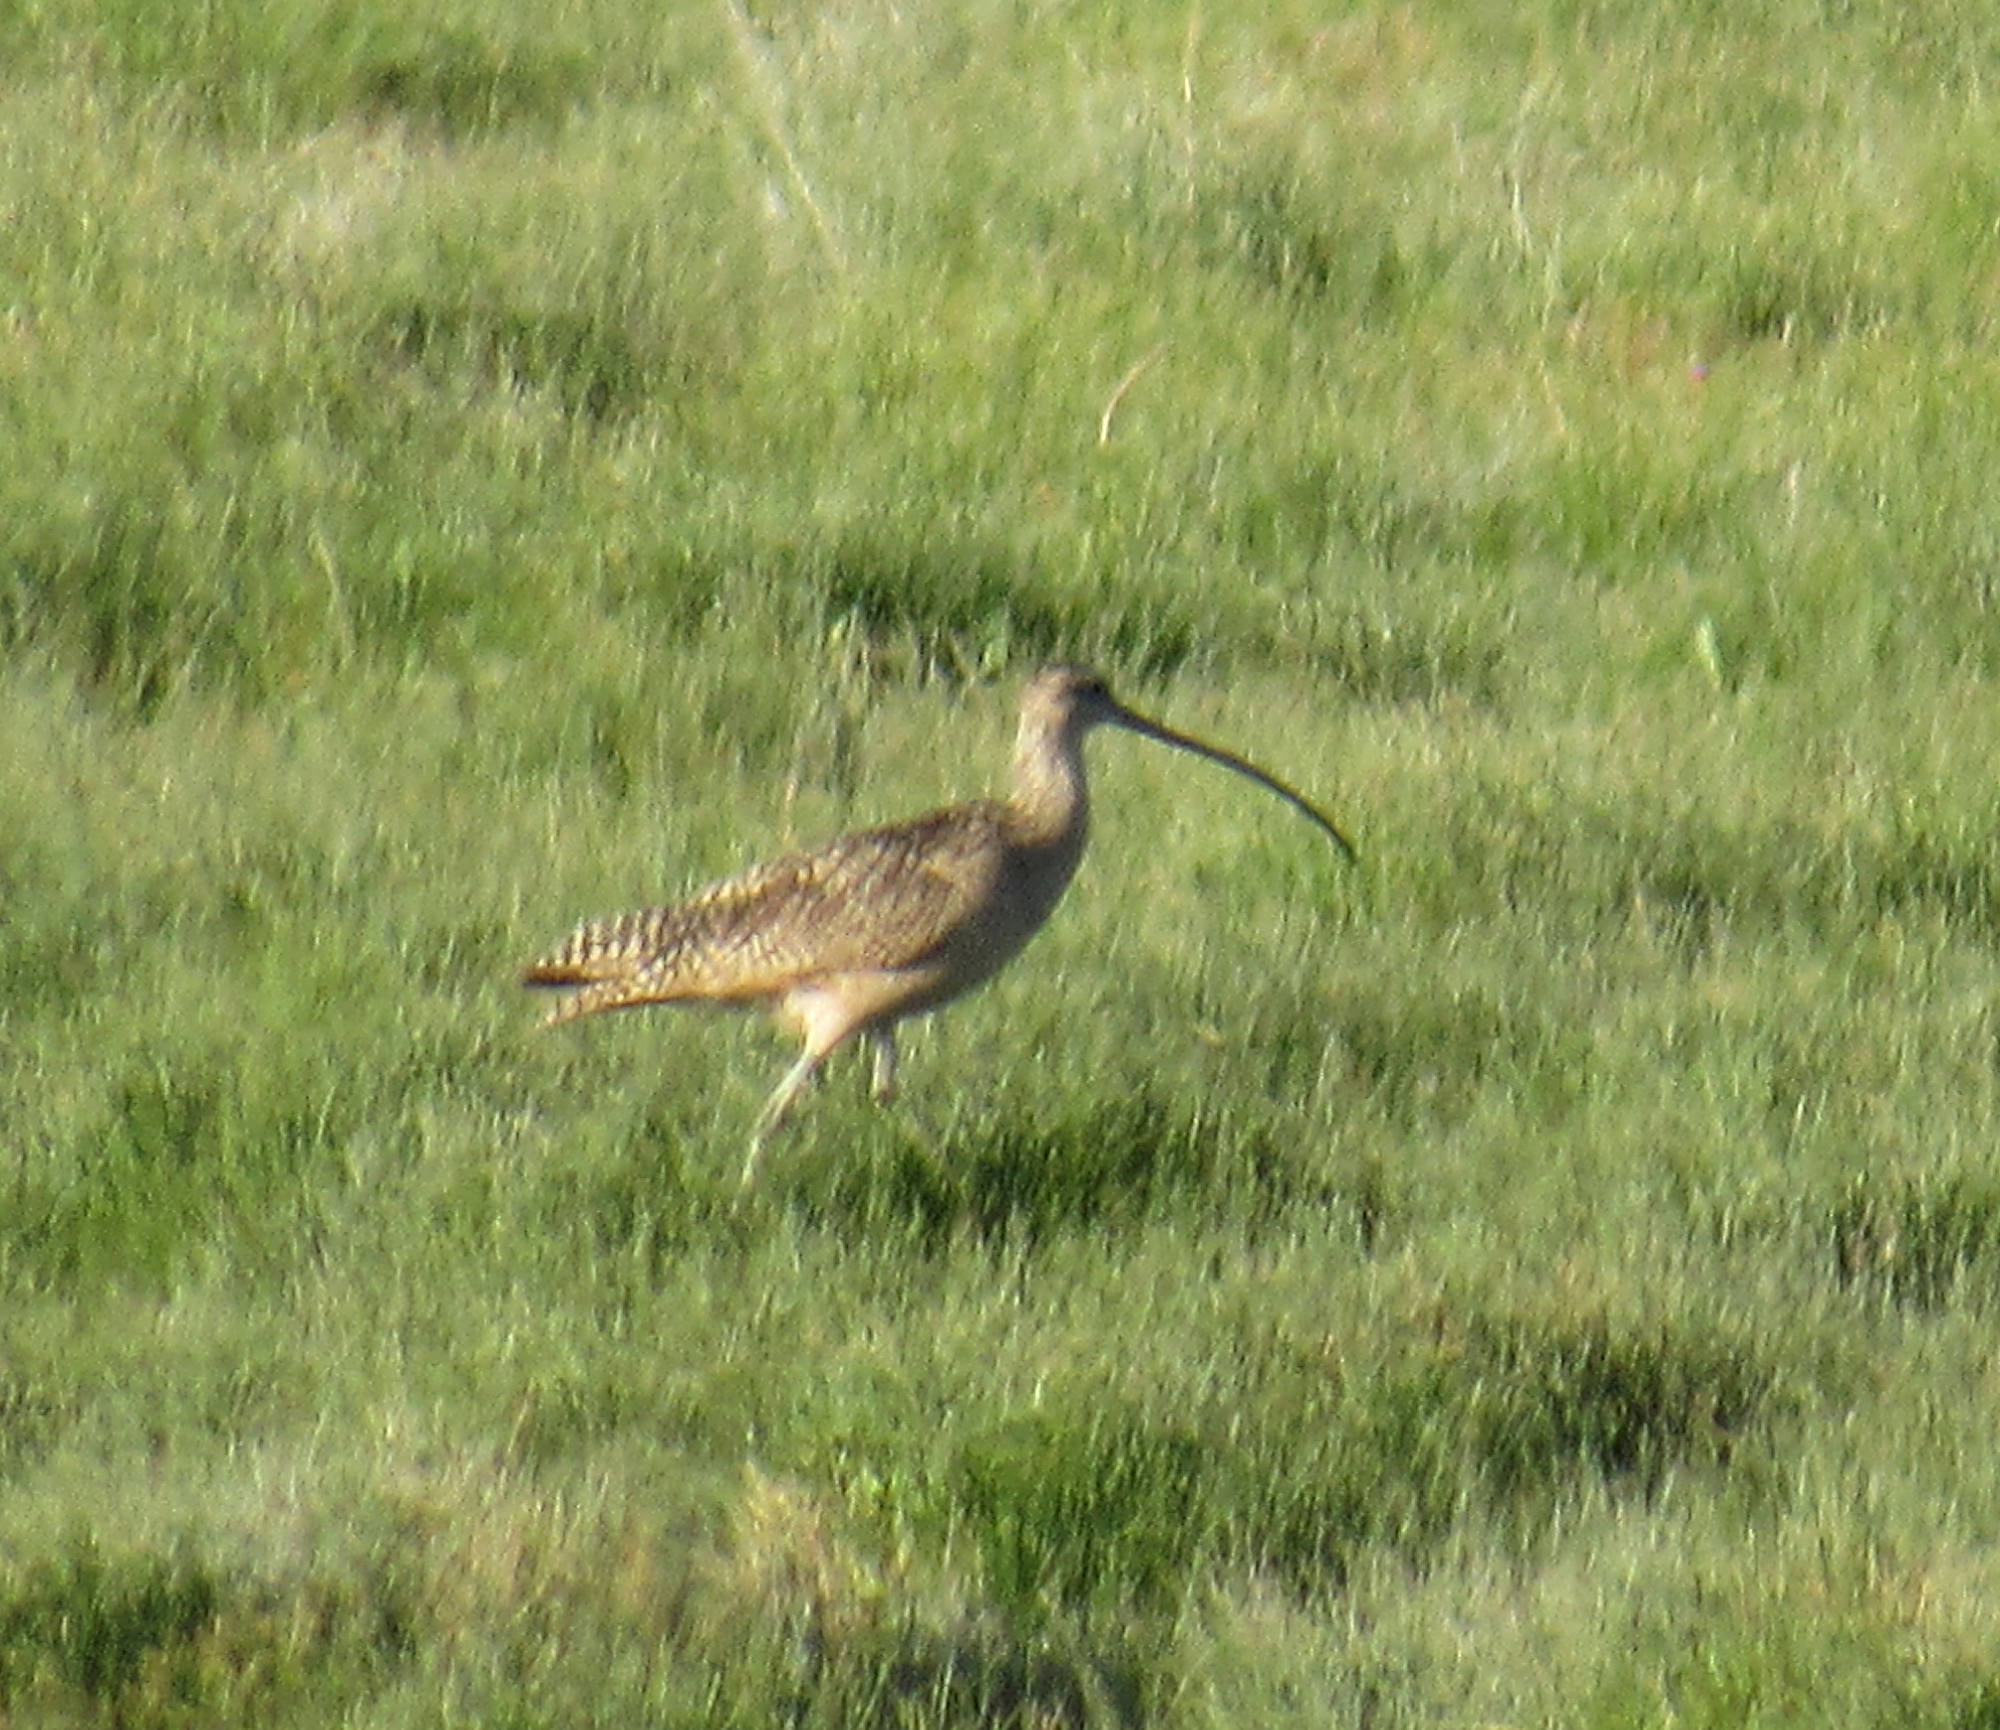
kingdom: Animalia
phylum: Chordata
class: Aves
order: Charadriiformes
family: Scolopacidae
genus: Numenius
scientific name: Numenius americanus
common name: Long-billed curlew
